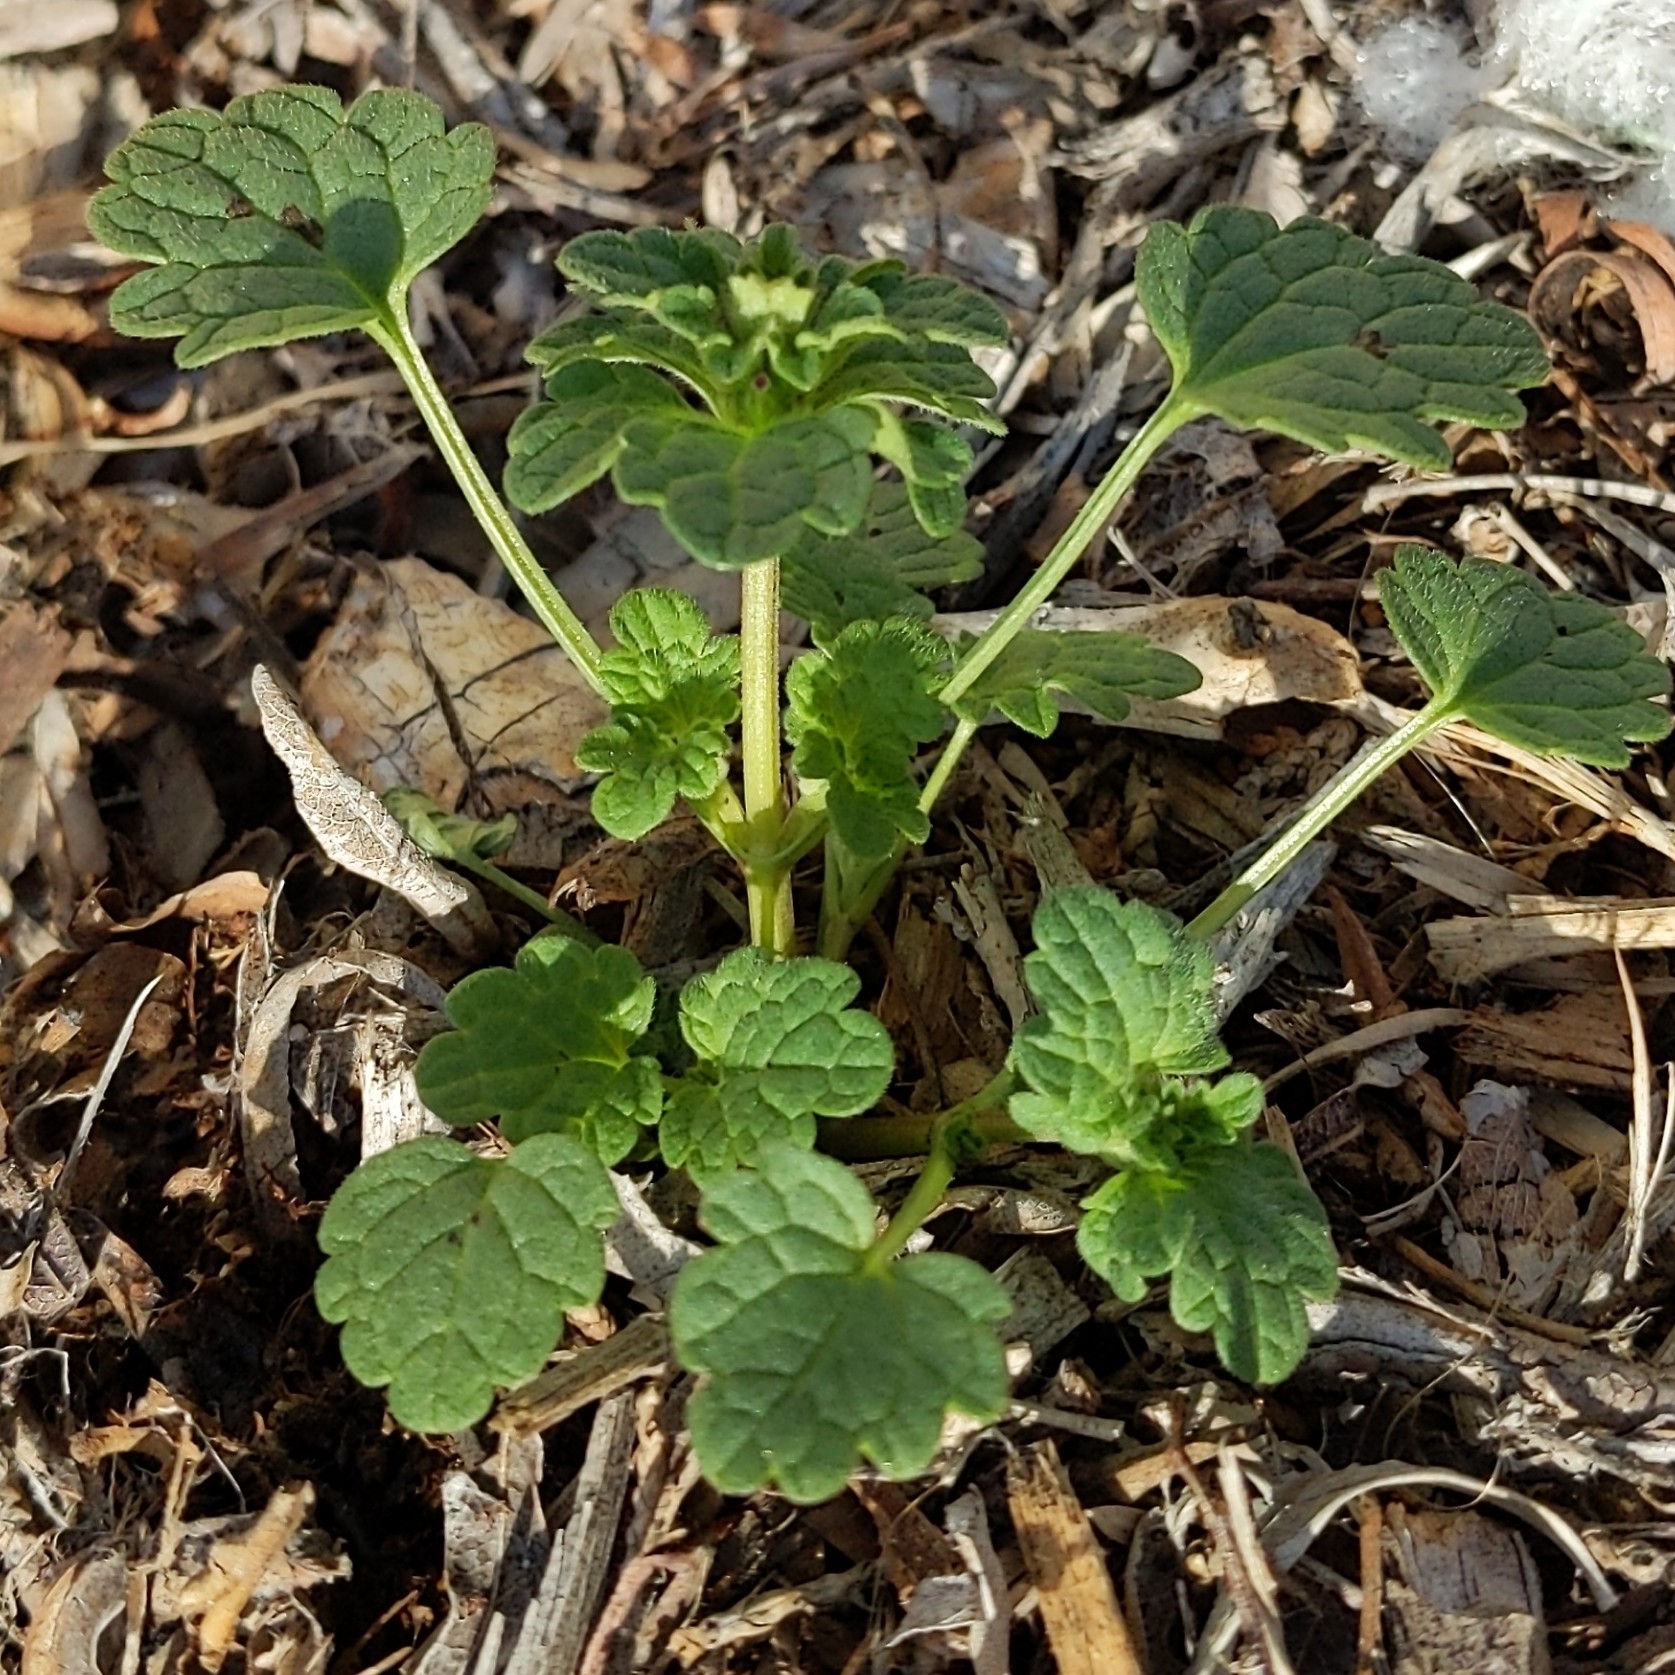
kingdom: Plantae
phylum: Tracheophyta
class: Magnoliopsida
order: Lamiales
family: Lamiaceae
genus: Lamium
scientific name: Lamium amplexicaule
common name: Henbit dead-nettle
